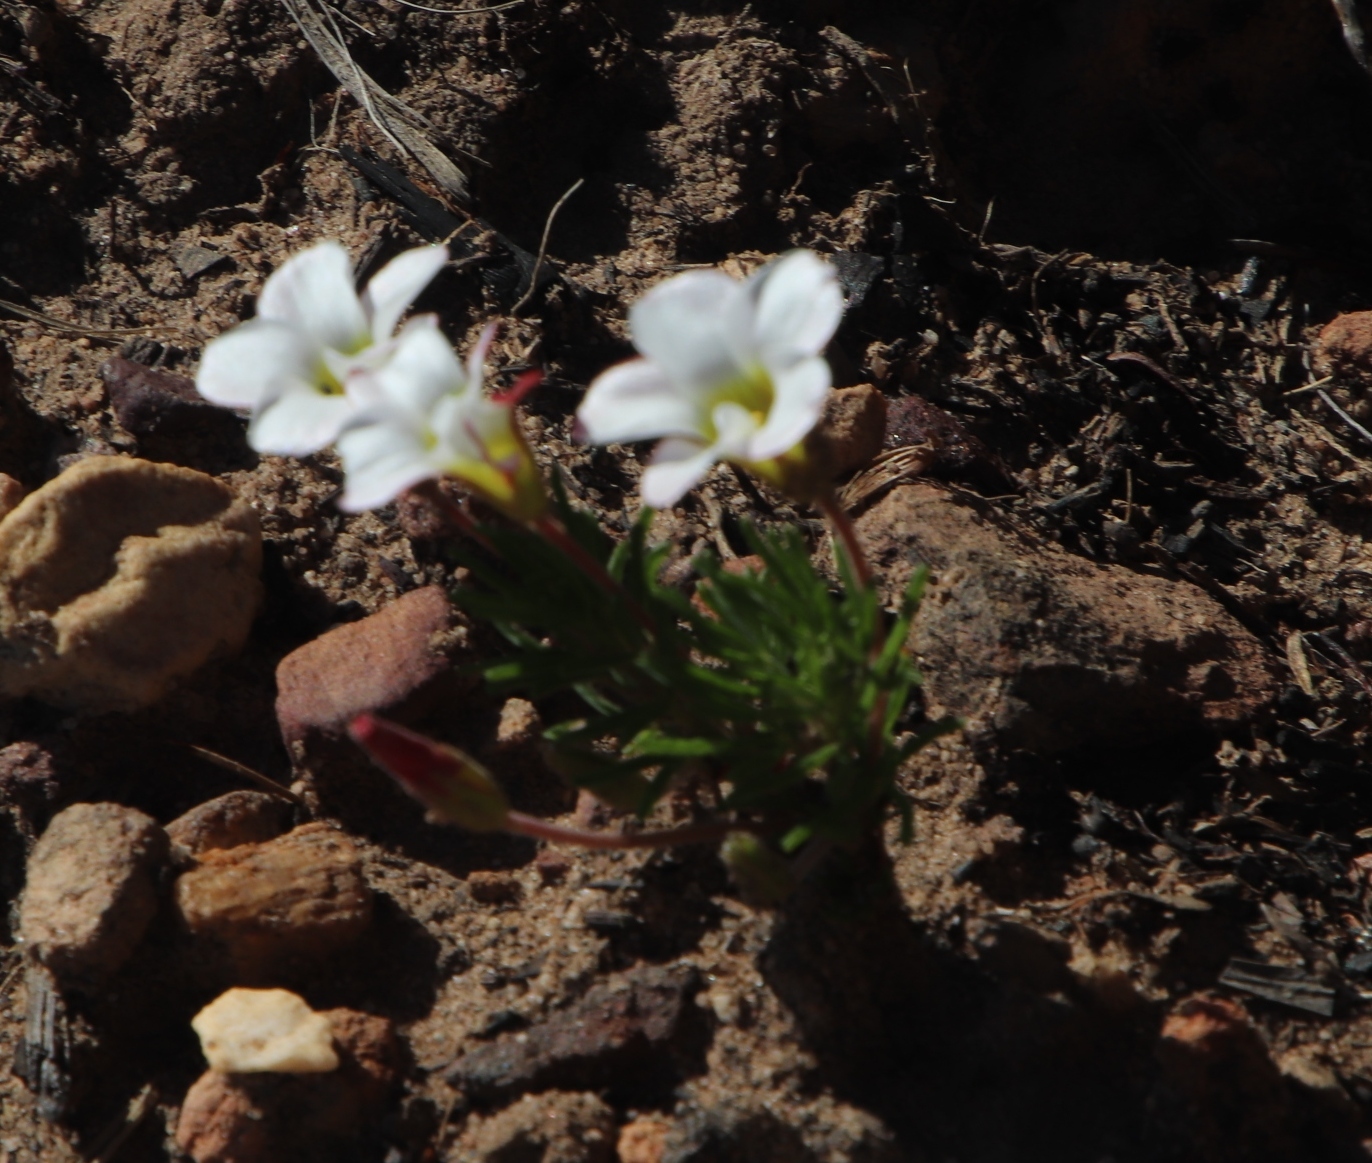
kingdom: Plantae
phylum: Tracheophyta
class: Magnoliopsida
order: Oxalidales
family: Oxalidaceae
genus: Oxalis
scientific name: Oxalis tenuifolia
